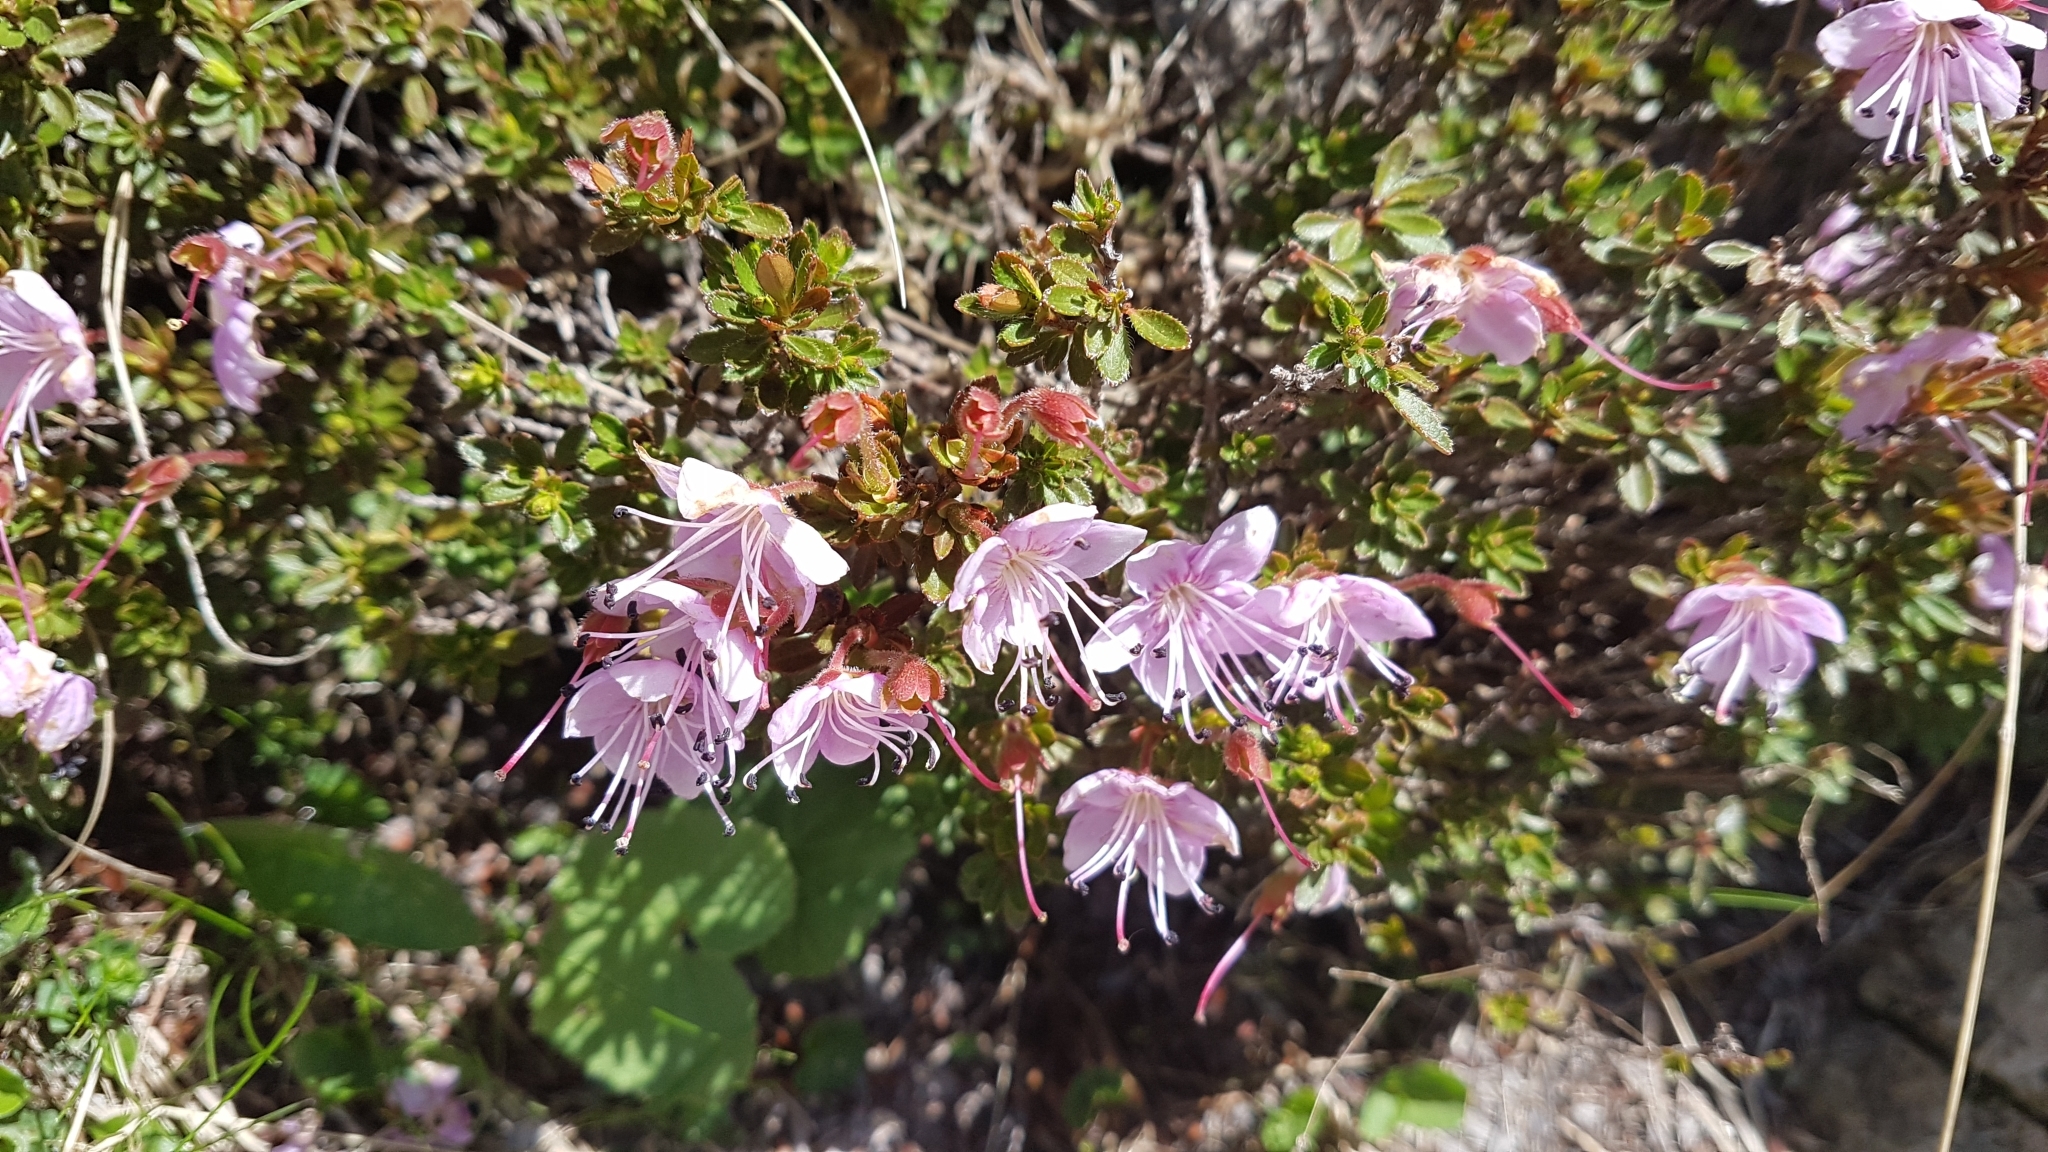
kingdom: Plantae
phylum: Tracheophyta
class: Magnoliopsida
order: Ericales
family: Ericaceae
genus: Rhodothamnus
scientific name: Rhodothamnus chamaecistus
